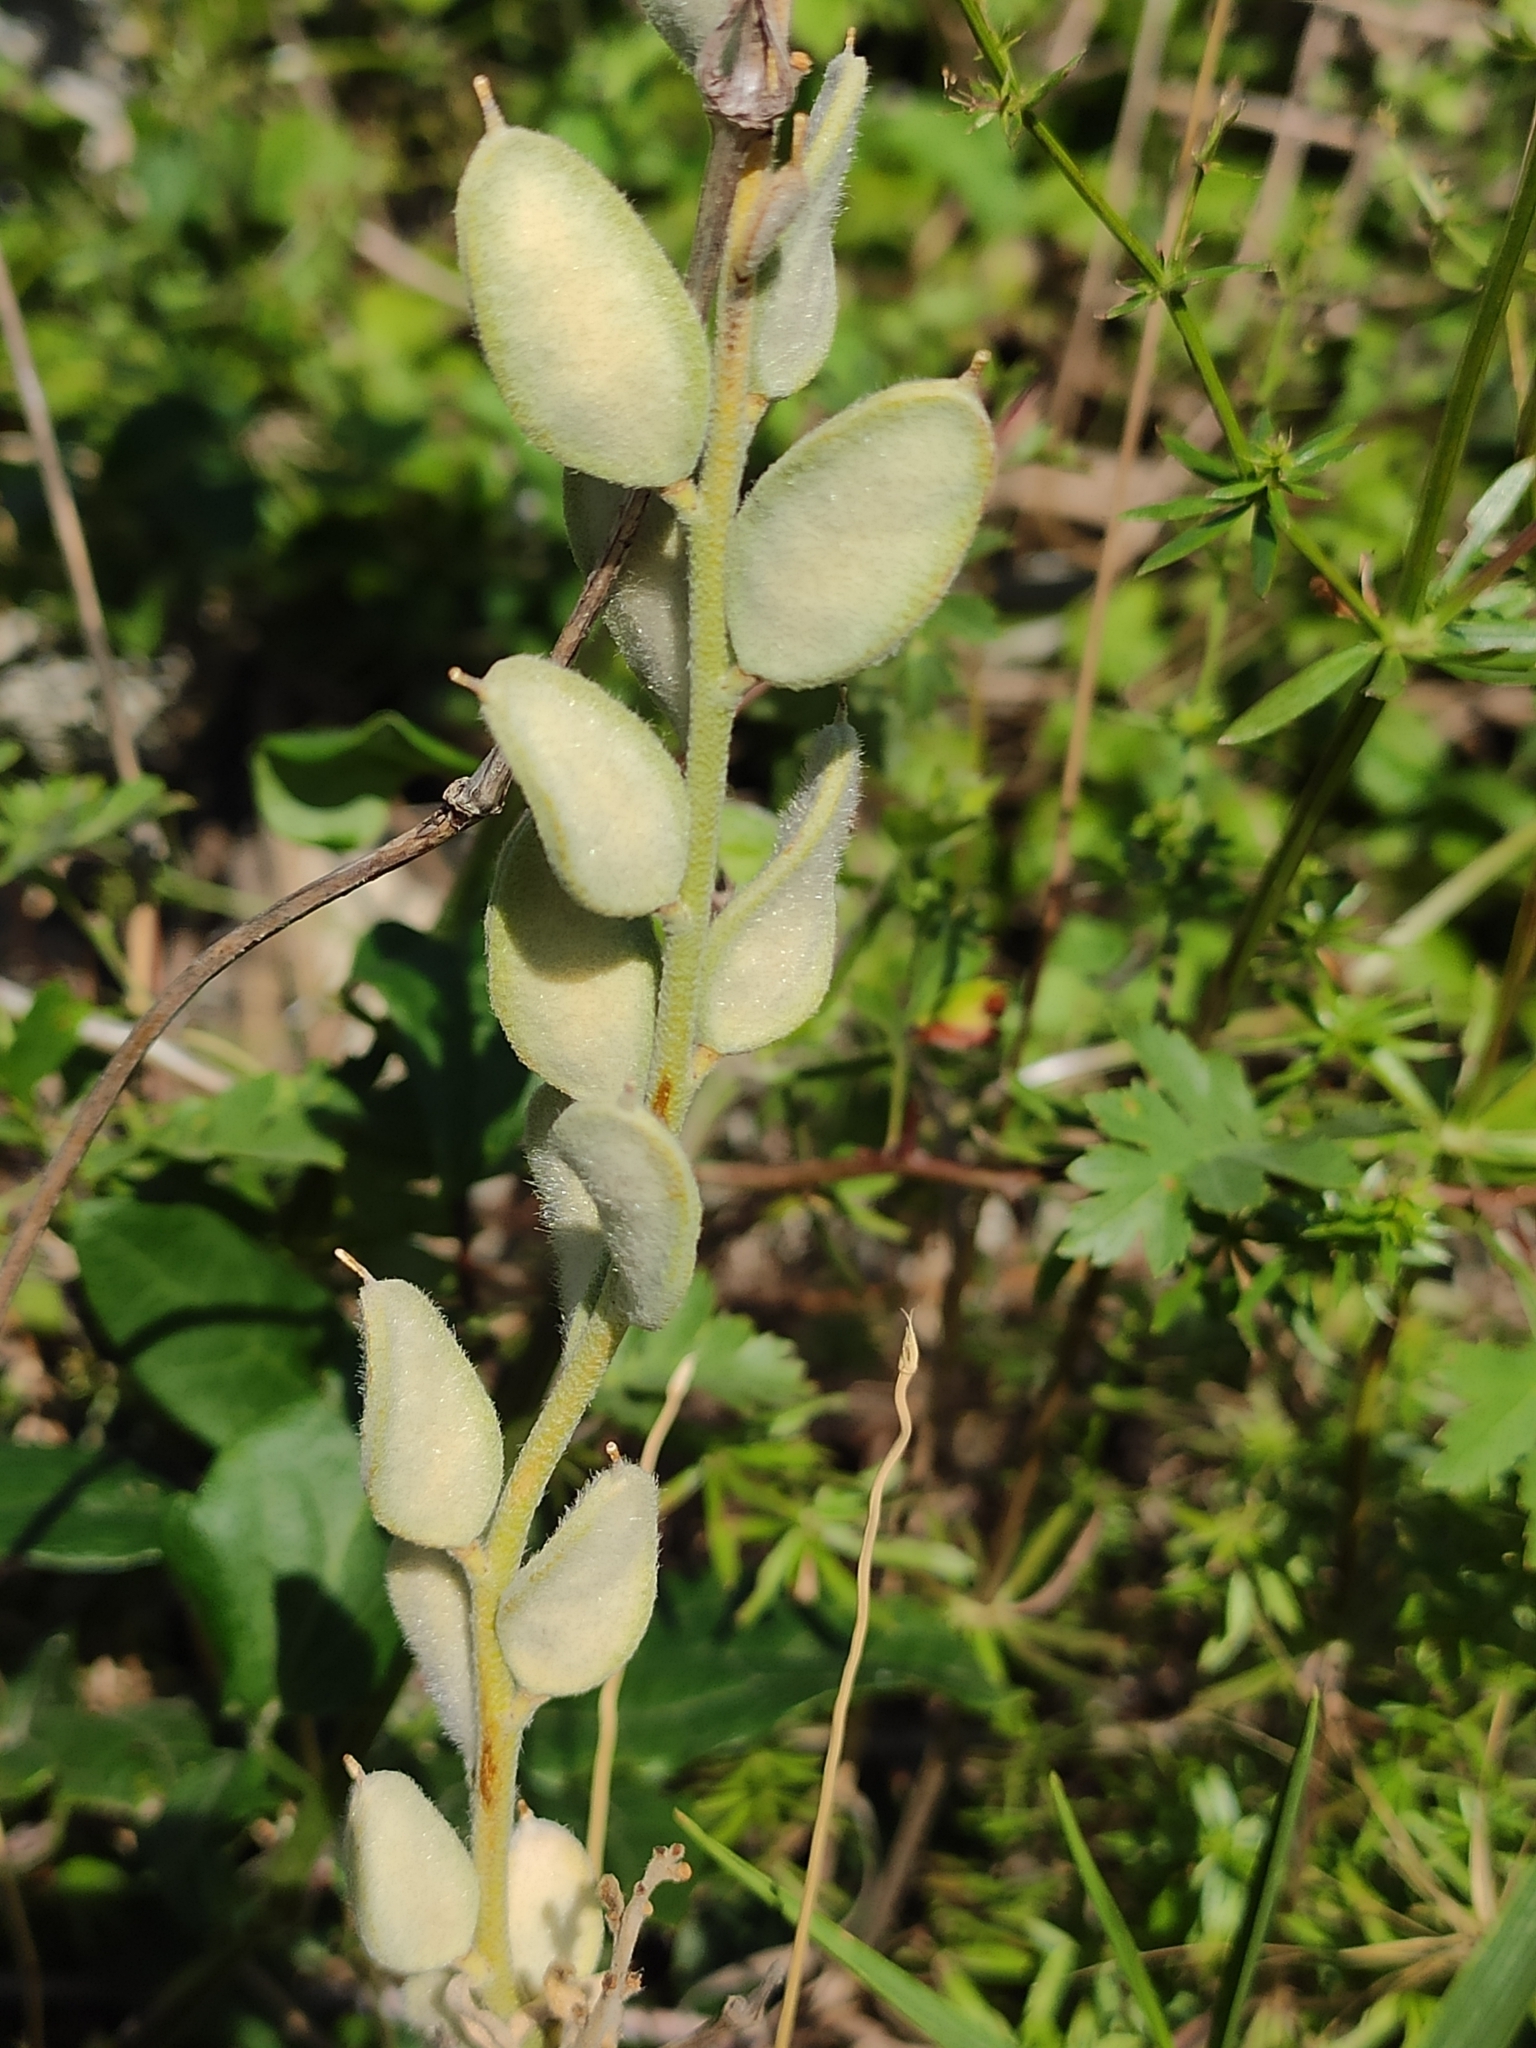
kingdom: Plantae
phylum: Tracheophyta
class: Magnoliopsida
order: Brassicales
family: Brassicaceae
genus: Fibigia
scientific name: Fibigia clypeata
